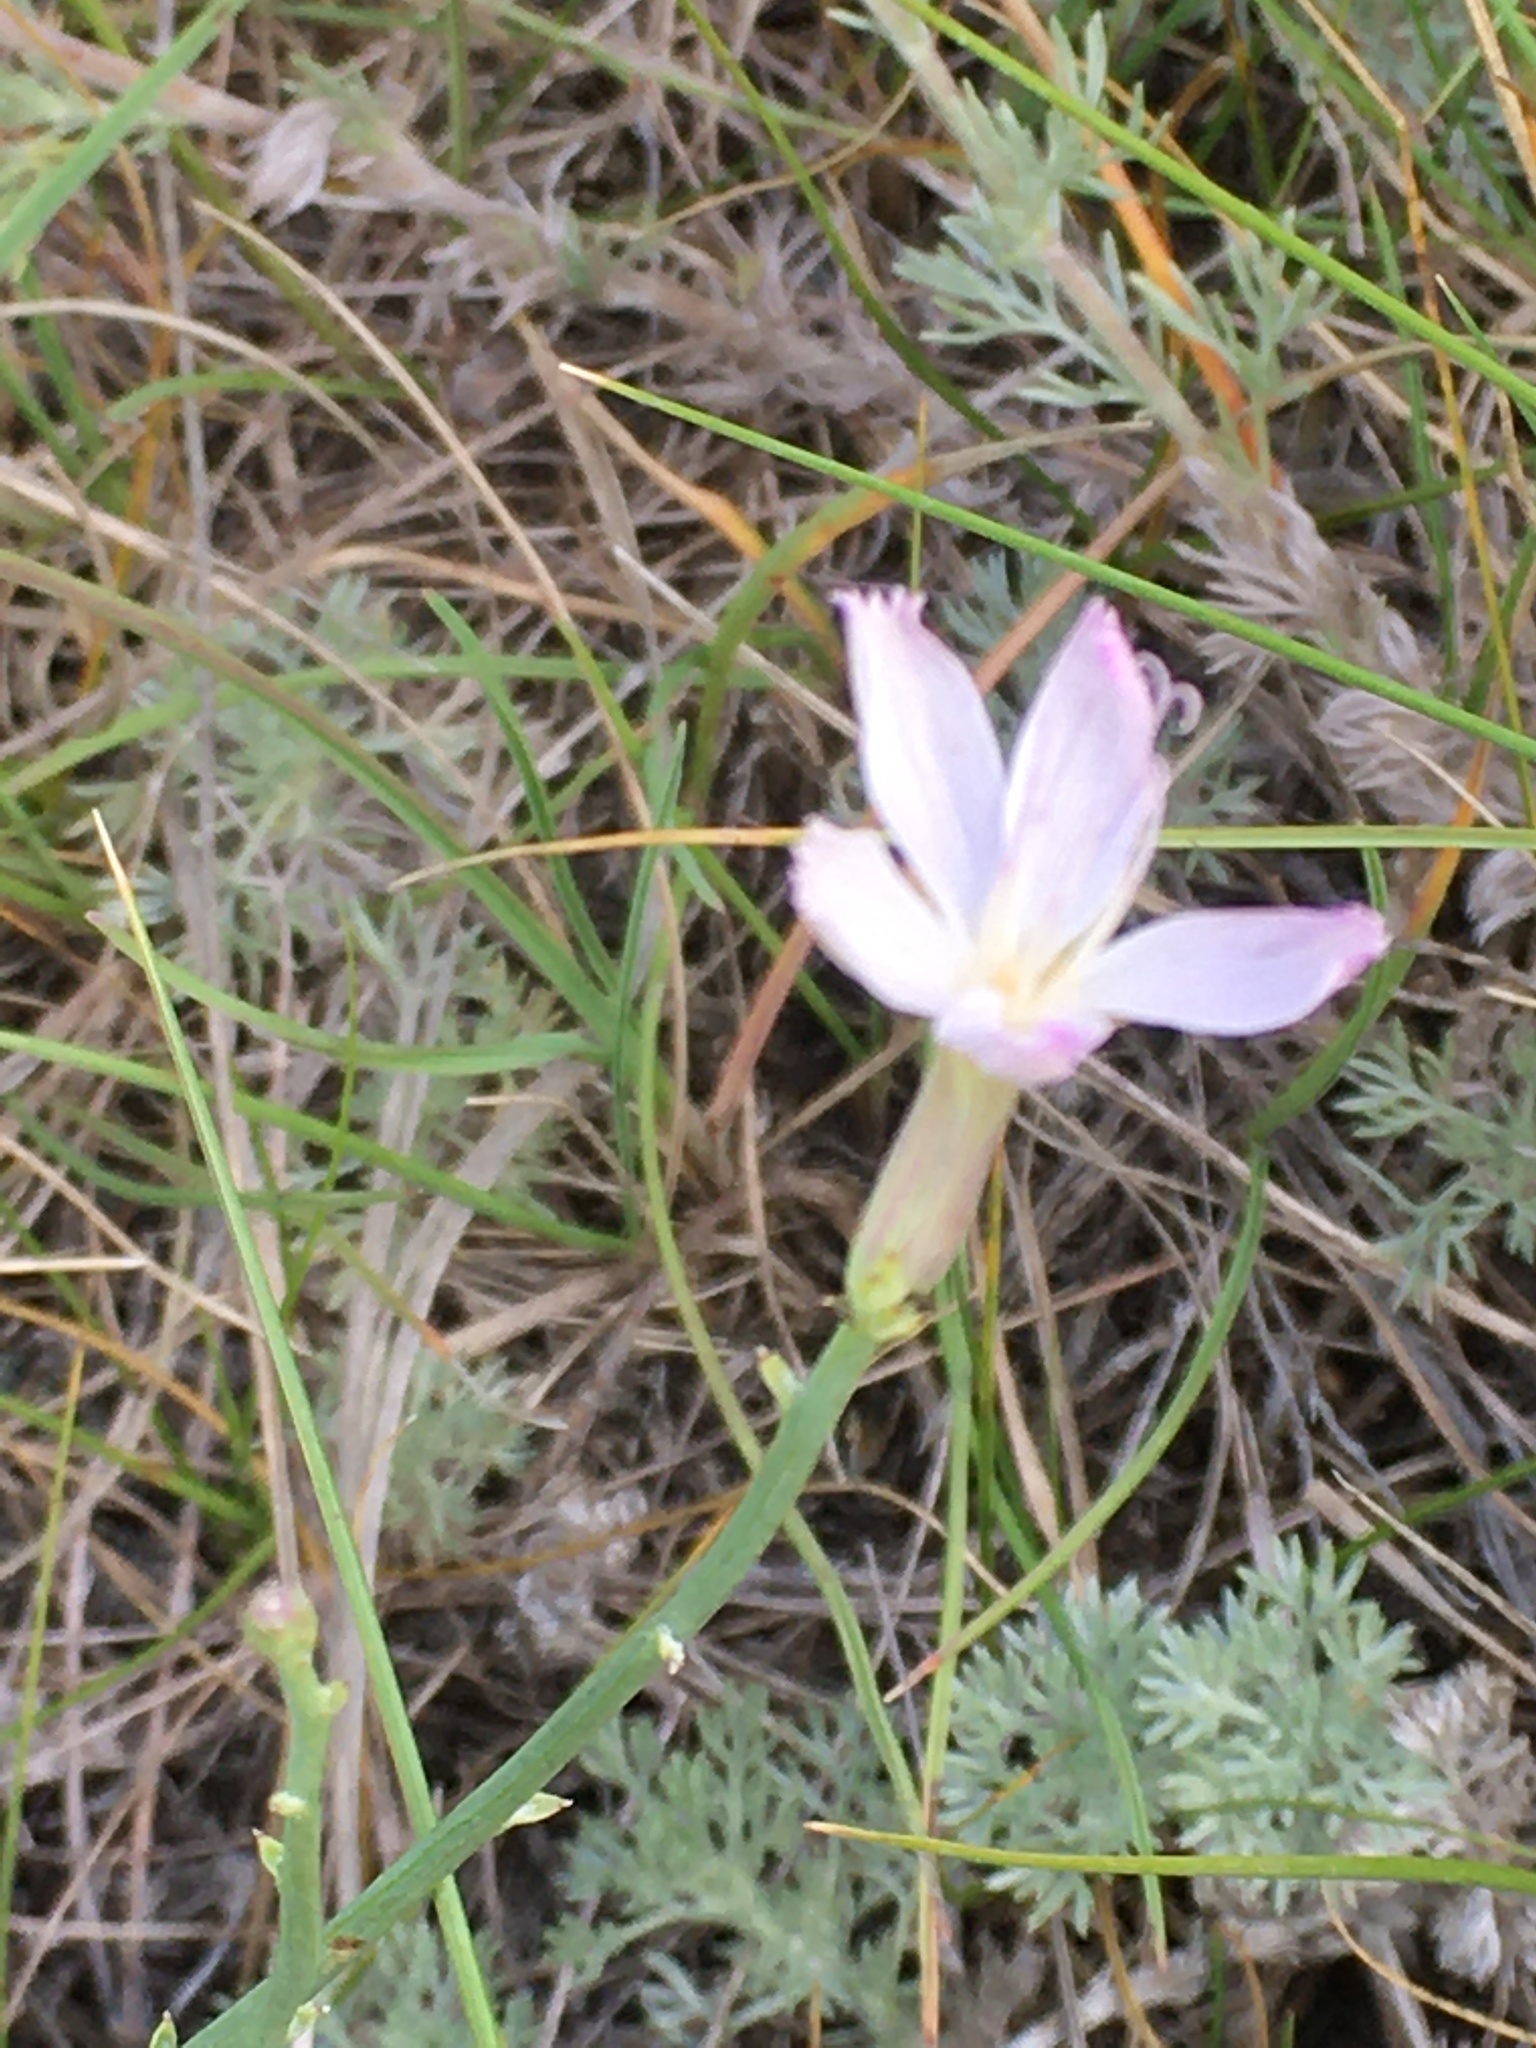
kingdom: Plantae
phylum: Tracheophyta
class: Magnoliopsida
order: Asterales
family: Asteraceae
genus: Lygodesmia
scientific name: Lygodesmia juncea
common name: Common skeletonweed
